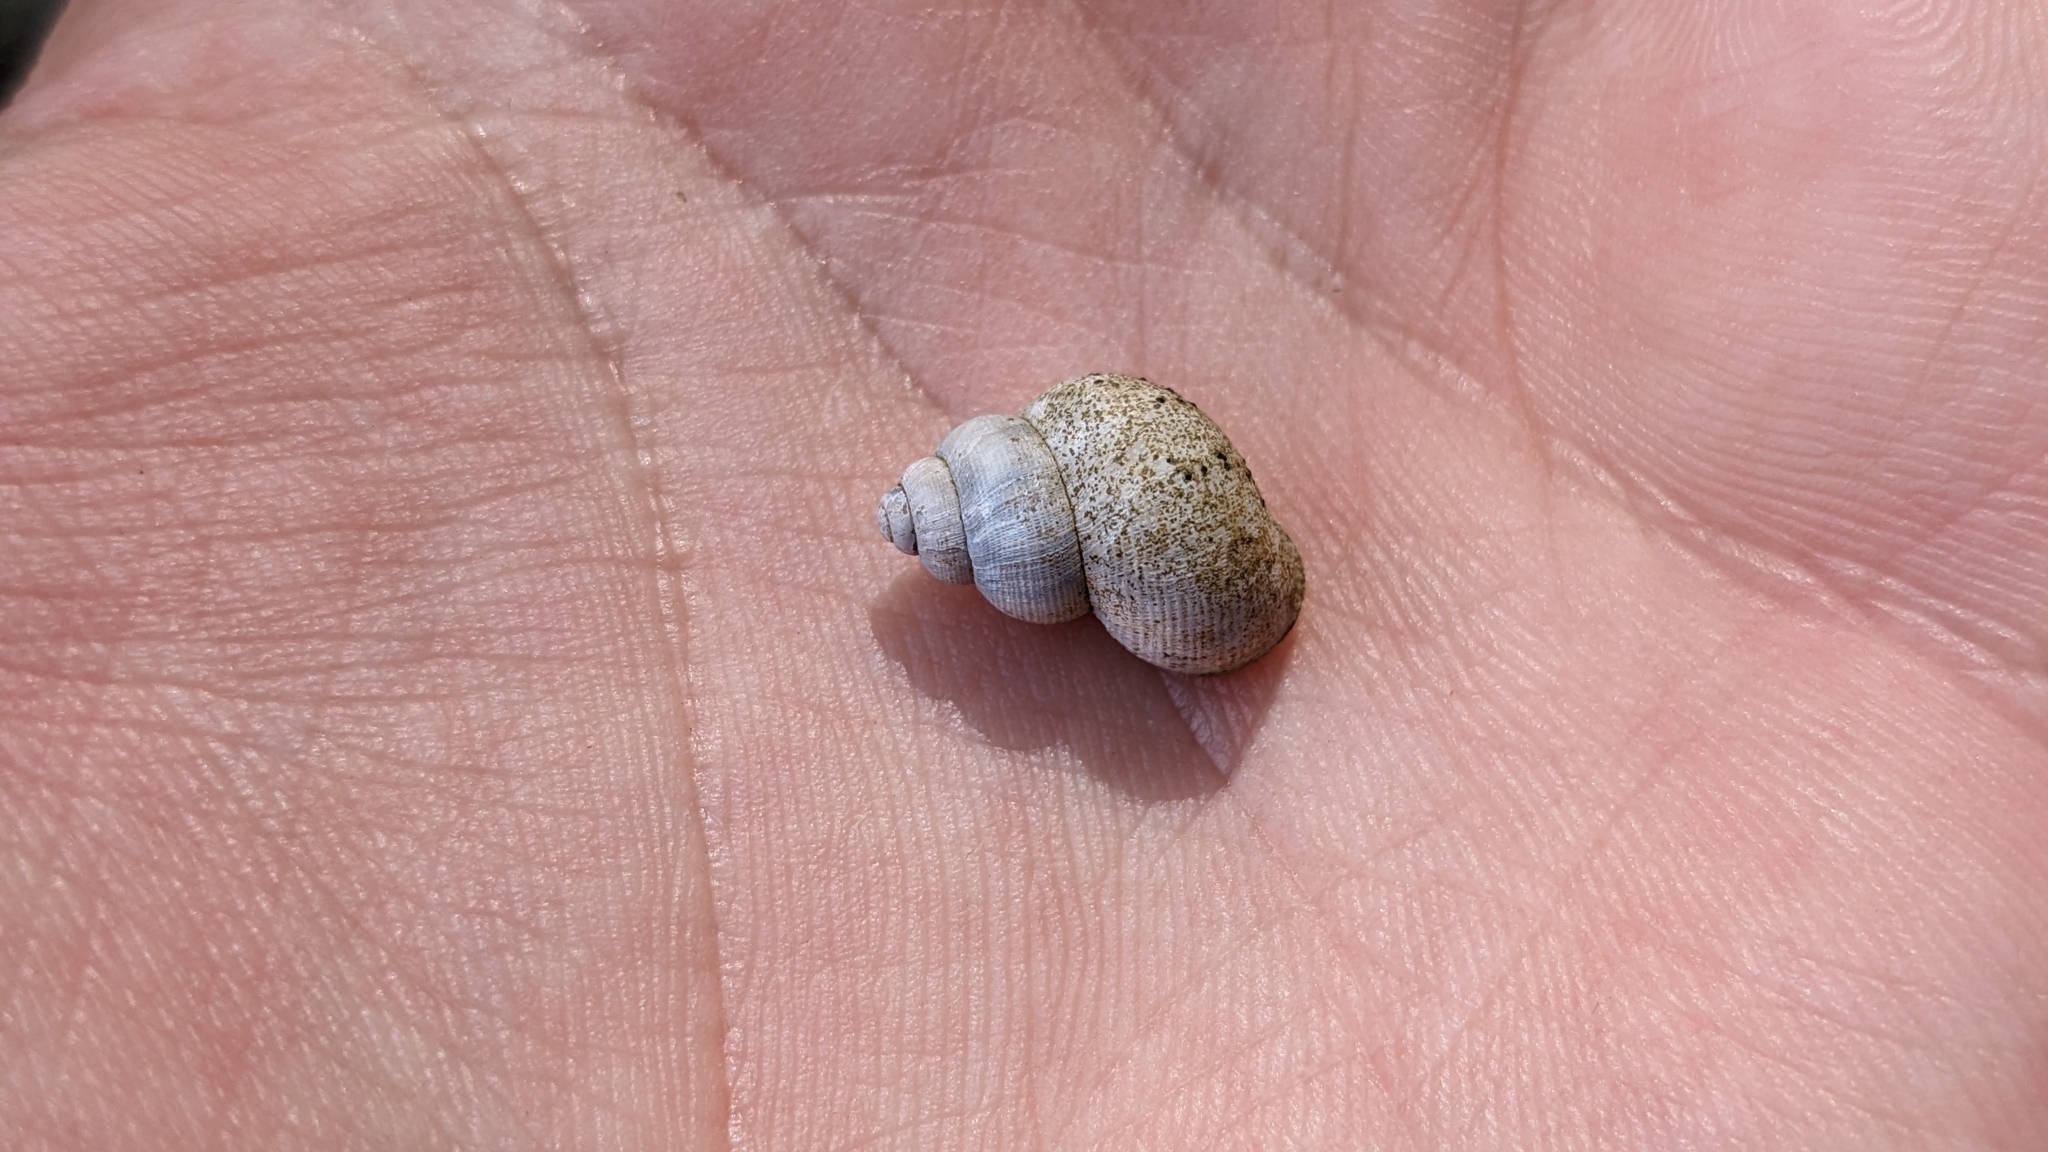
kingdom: Animalia
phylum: Mollusca
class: Gastropoda
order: Littorinimorpha
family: Pomatiidae
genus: Pomatias
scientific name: Pomatias elegans
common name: Red-mouthed snail
